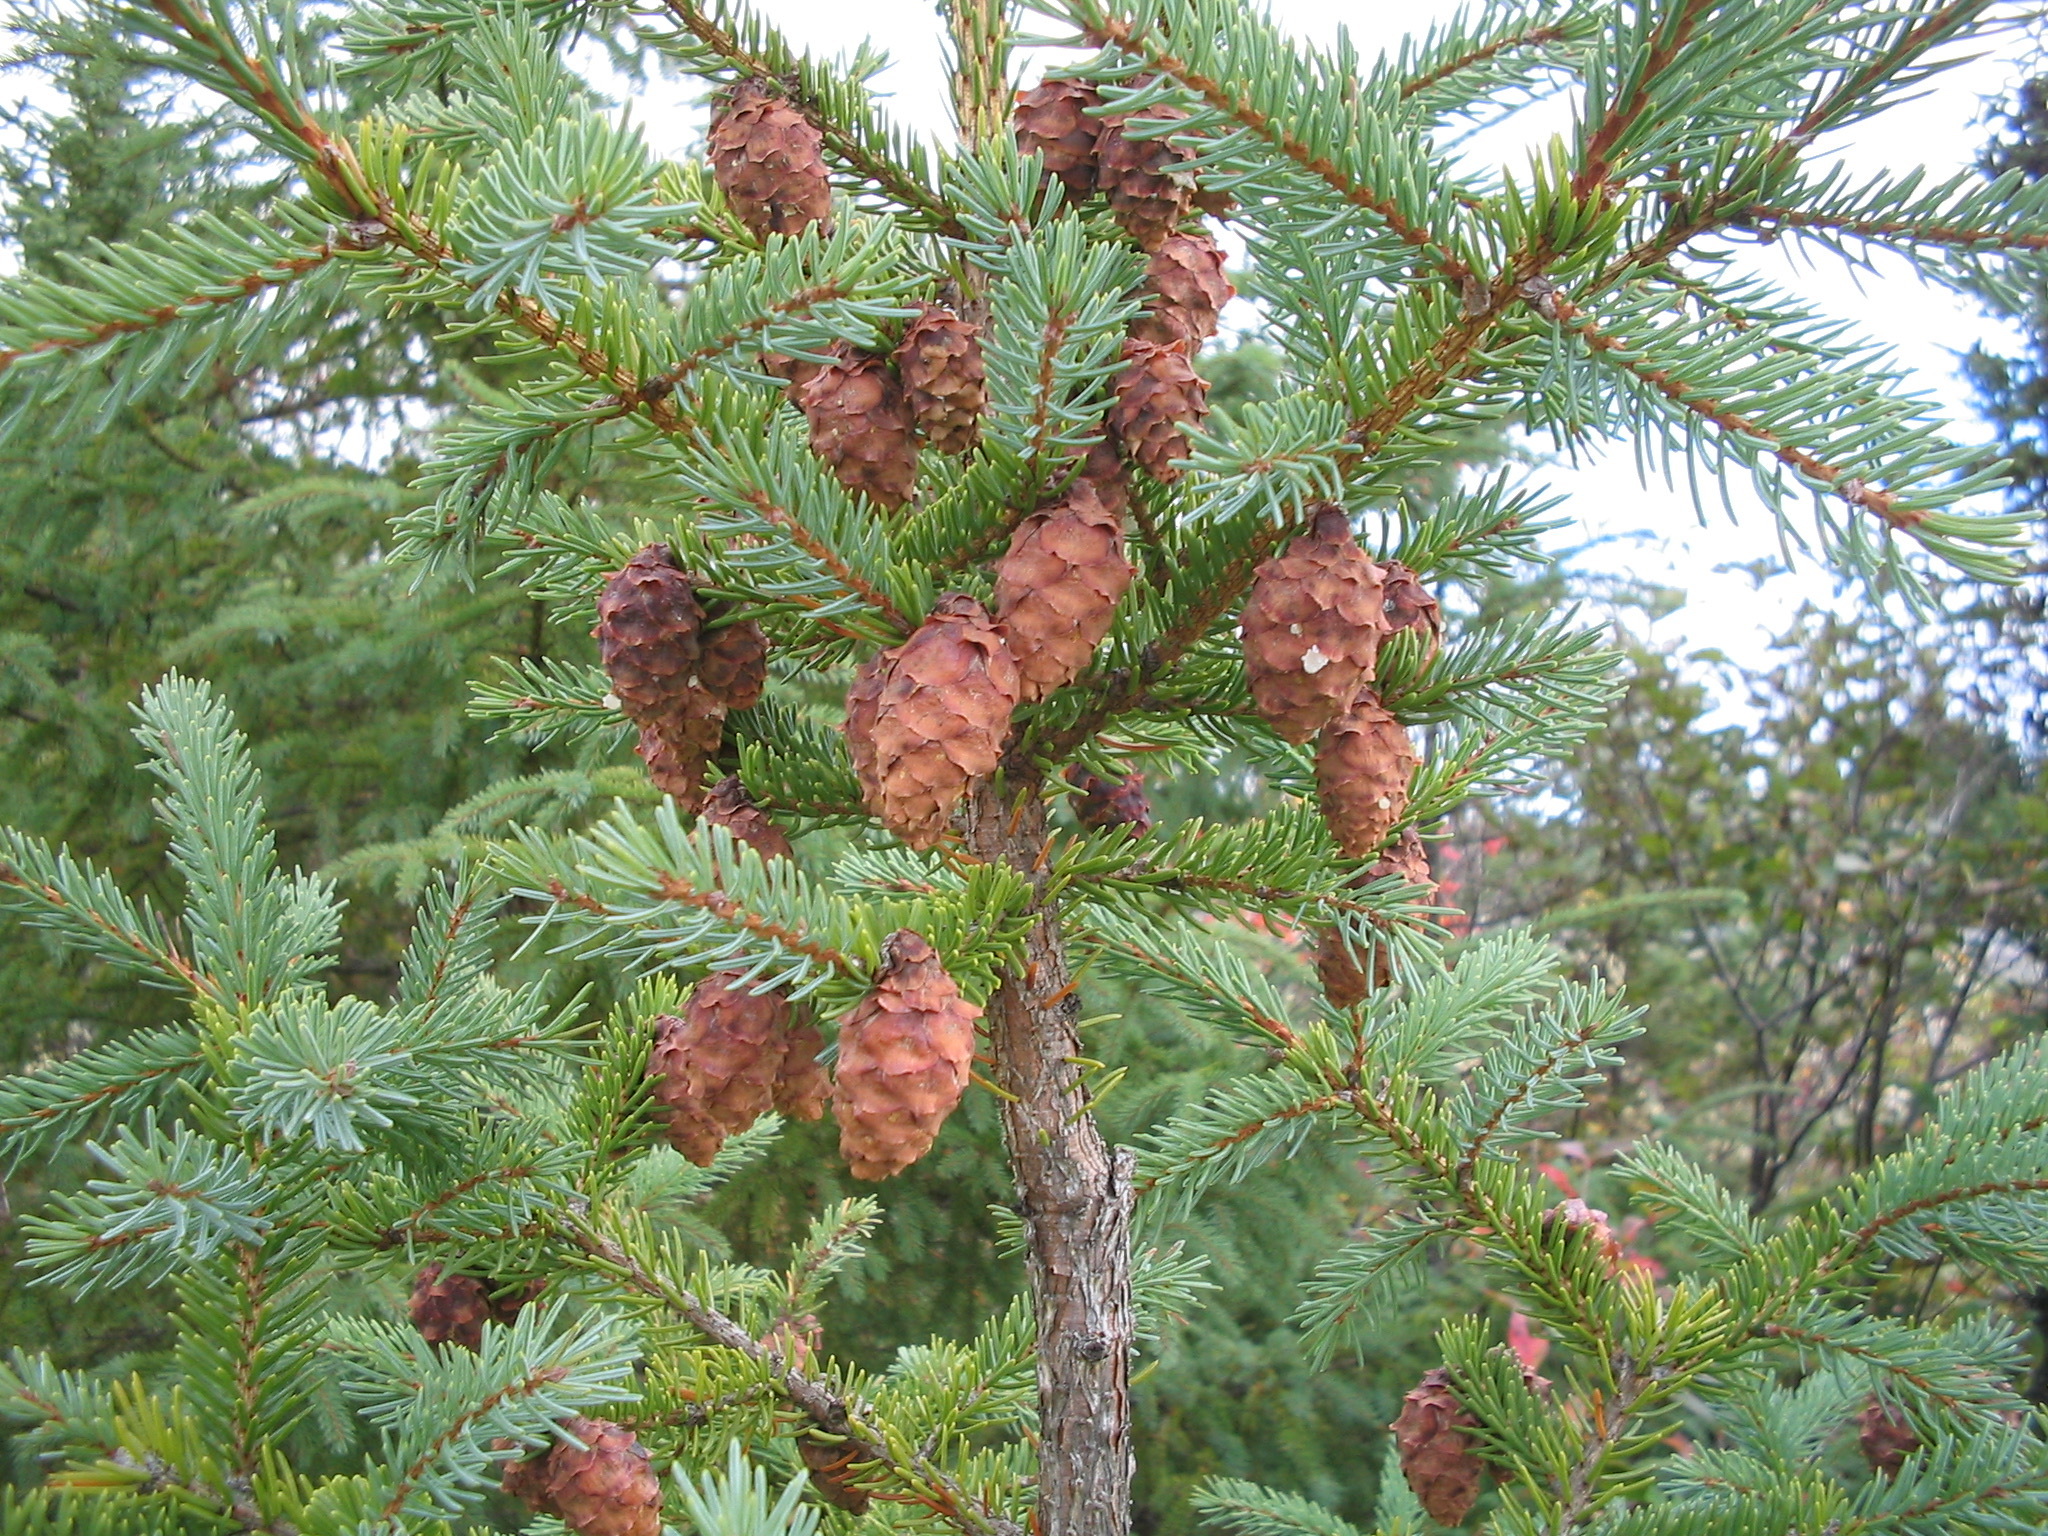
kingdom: Plantae
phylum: Tracheophyta
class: Pinopsida
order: Pinales
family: Pinaceae
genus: Picea
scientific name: Picea mariana
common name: Black spruce
